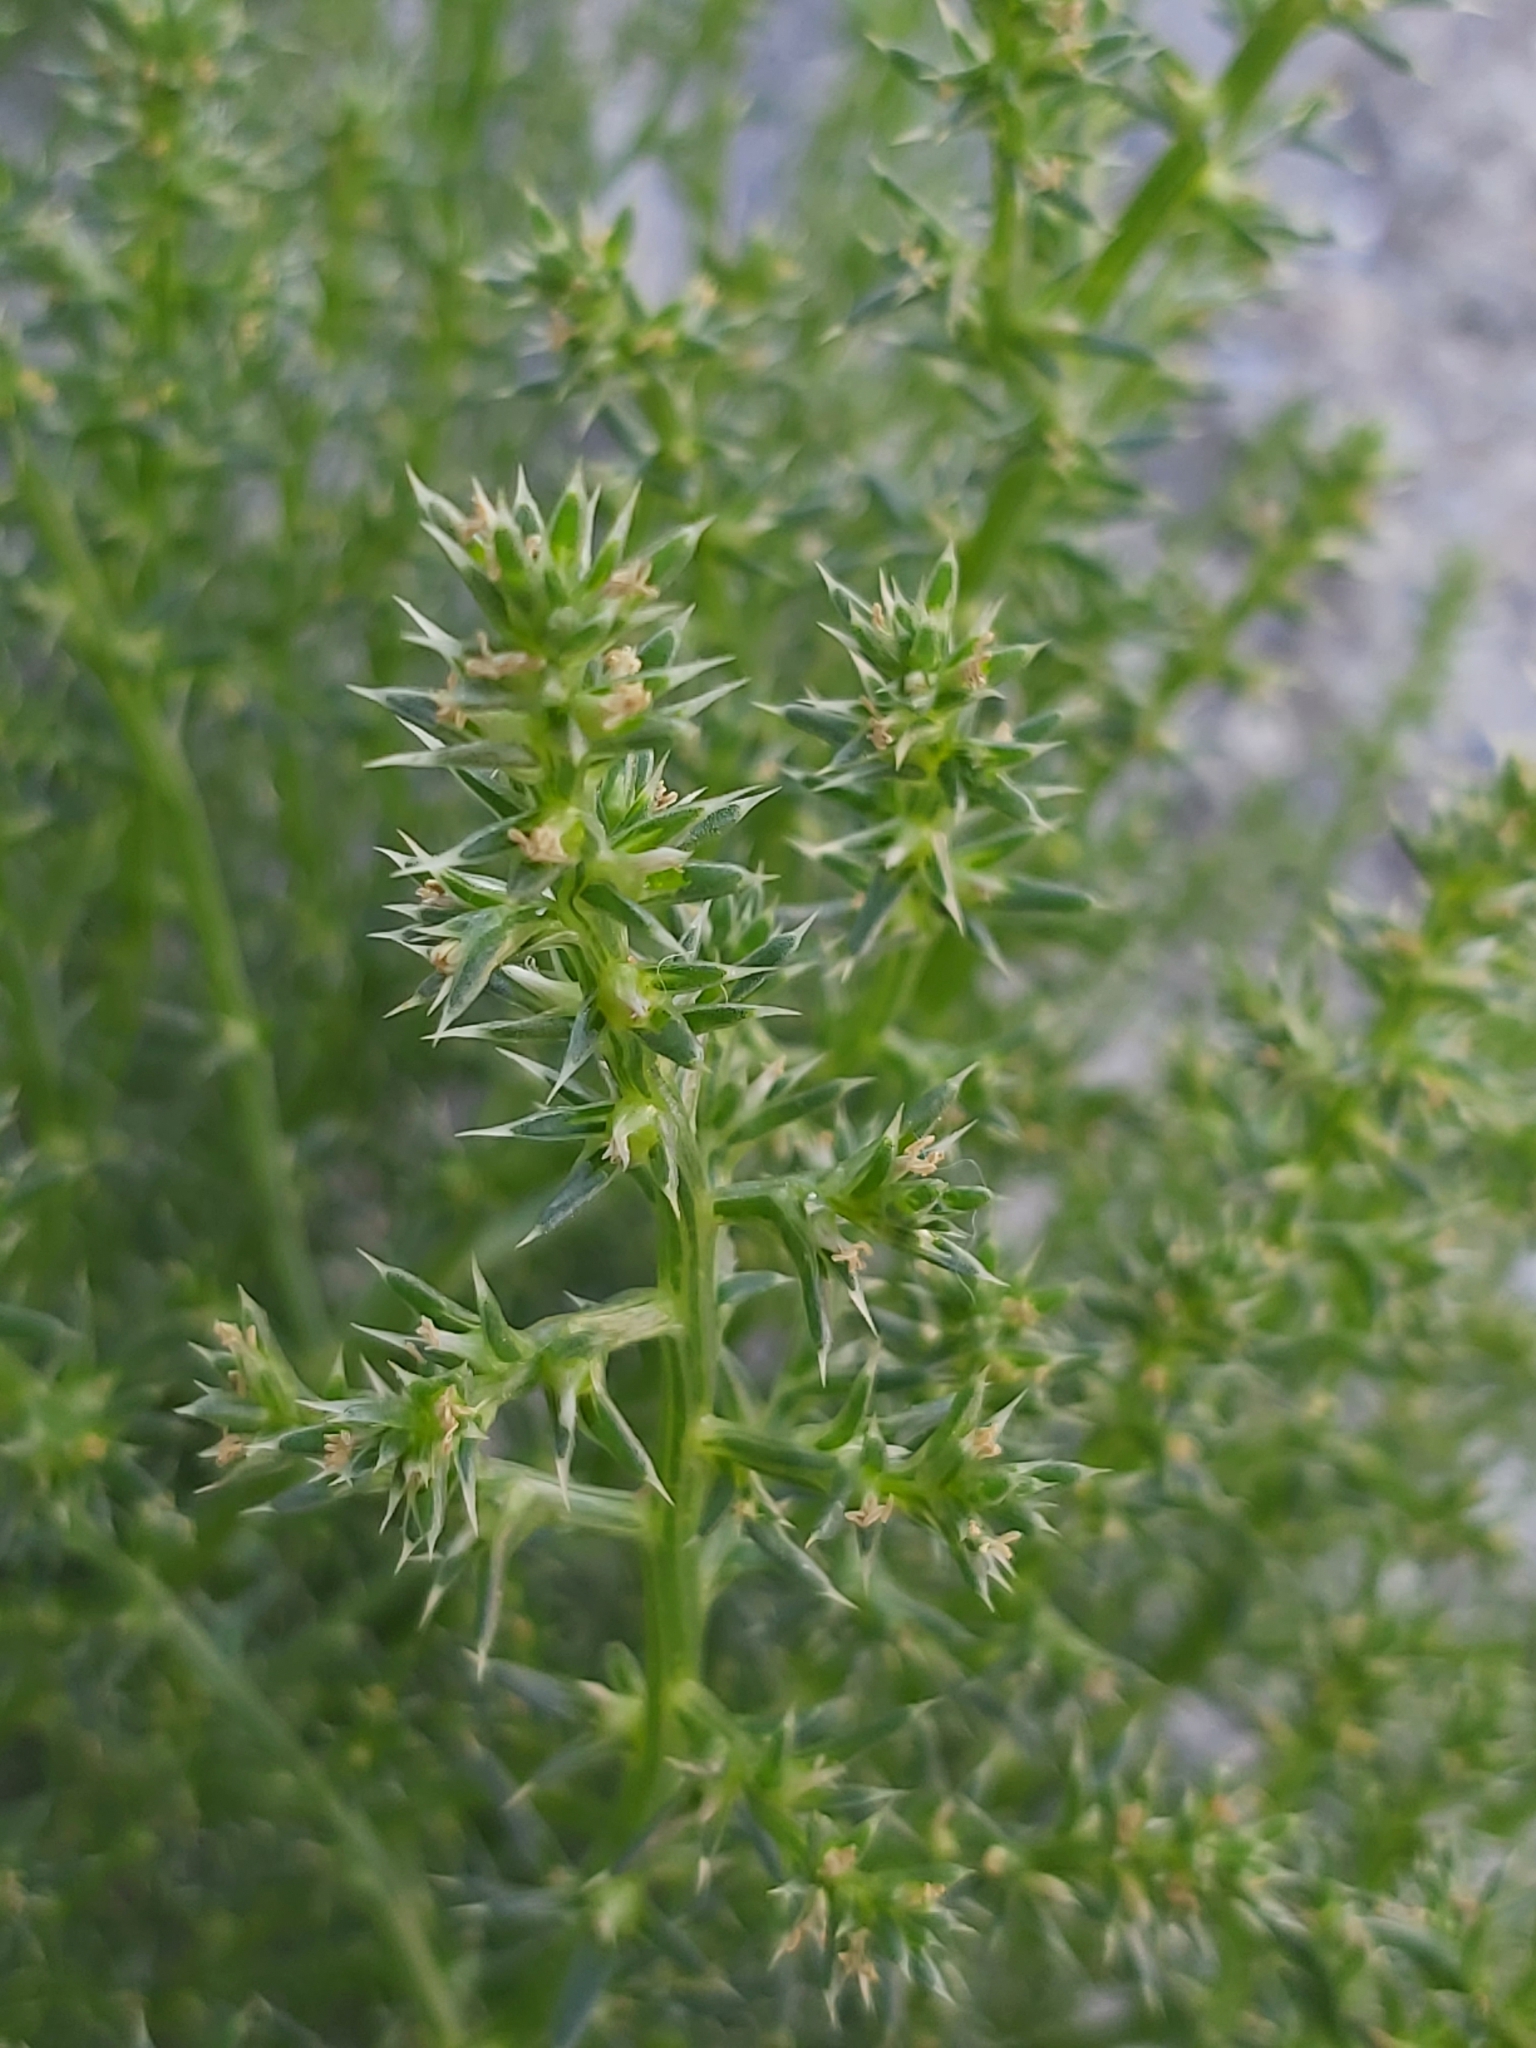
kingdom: Plantae
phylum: Tracheophyta
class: Magnoliopsida
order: Caryophyllales
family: Amaranthaceae
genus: Salsola
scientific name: Salsola kali
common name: Saltwort
